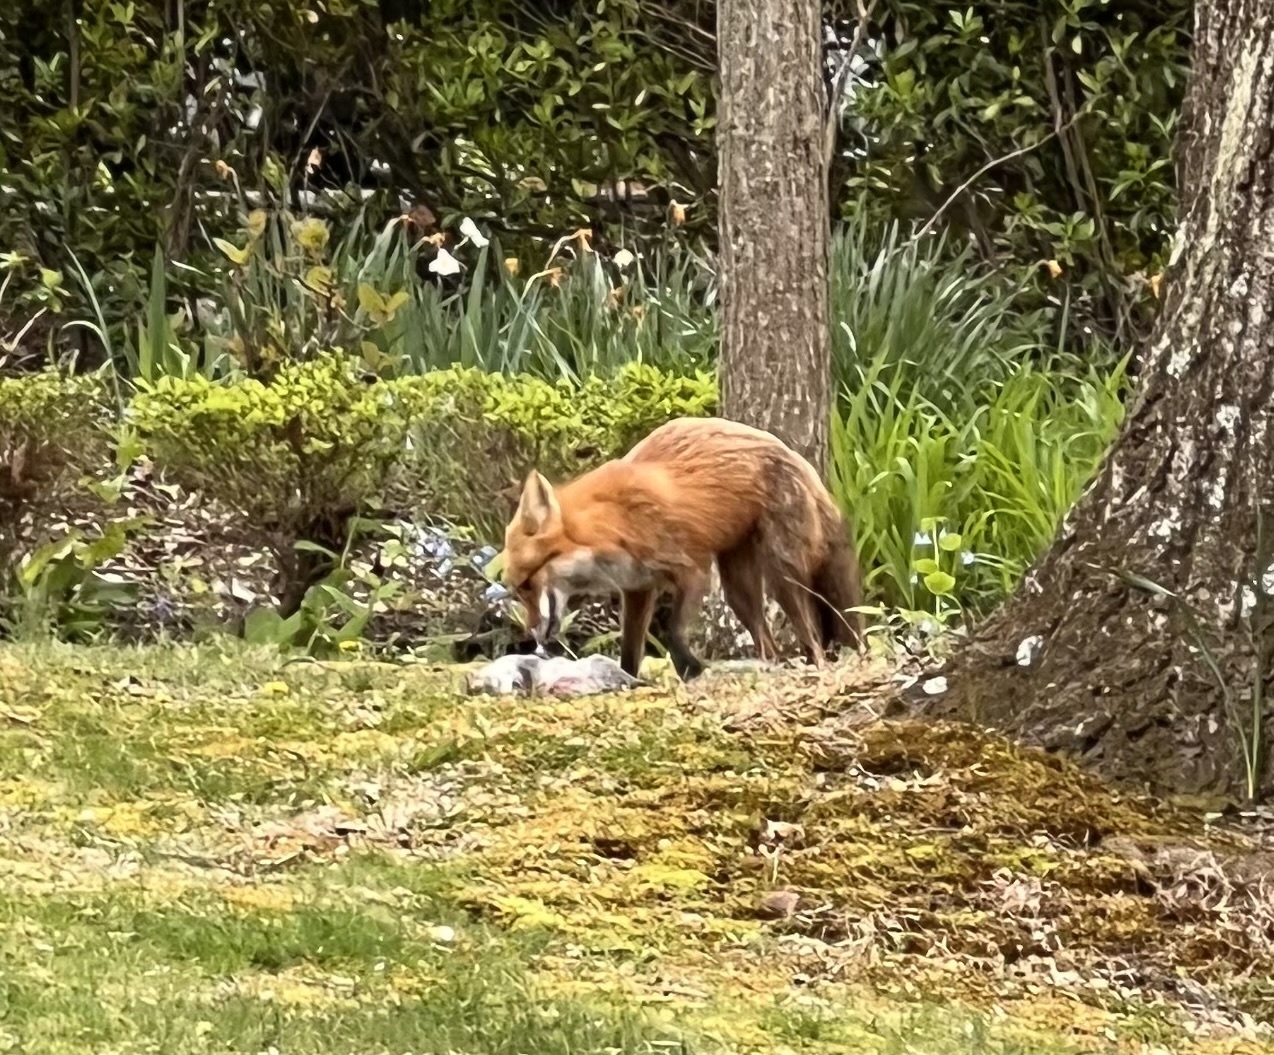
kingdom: Animalia
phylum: Chordata
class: Mammalia
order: Carnivora
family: Canidae
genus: Vulpes
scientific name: Vulpes vulpes
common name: Red fox
